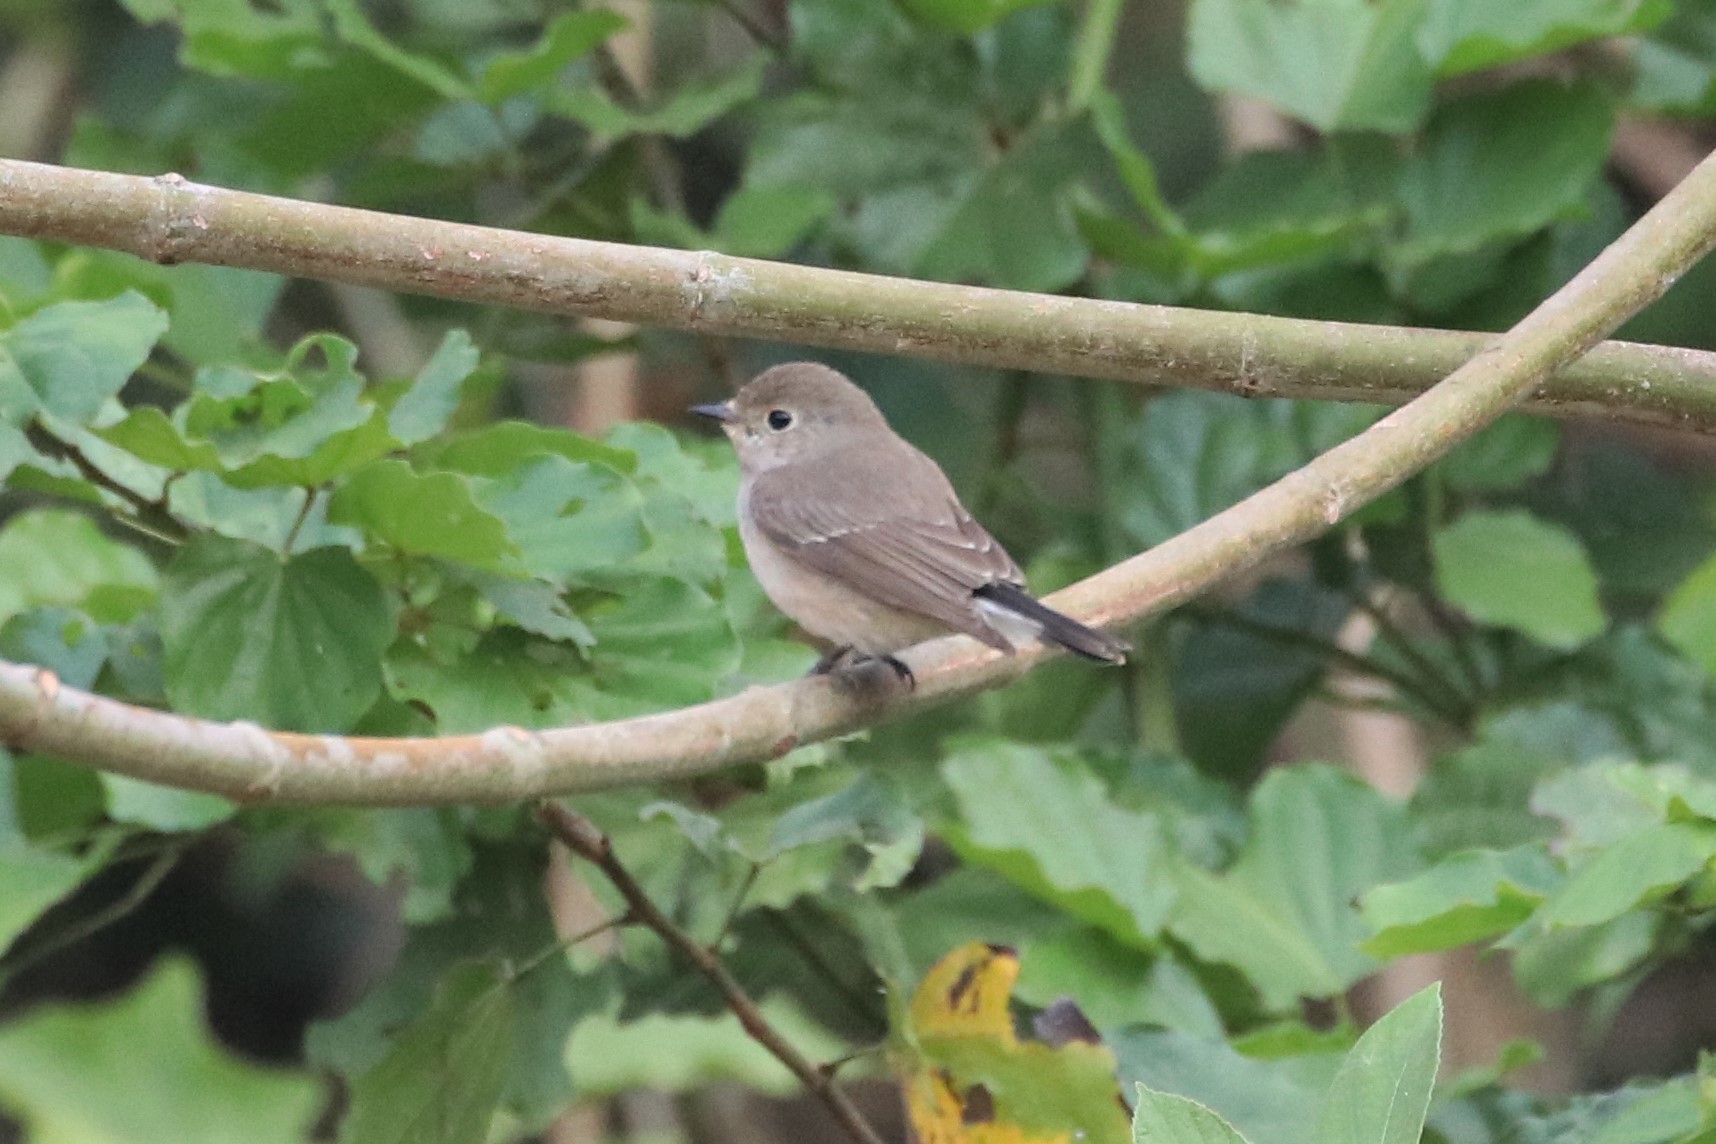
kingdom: Animalia
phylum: Chordata
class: Aves
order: Passeriformes
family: Muscicapidae
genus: Ficedula
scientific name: Ficedula albicilla
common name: Taiga flycatcher
